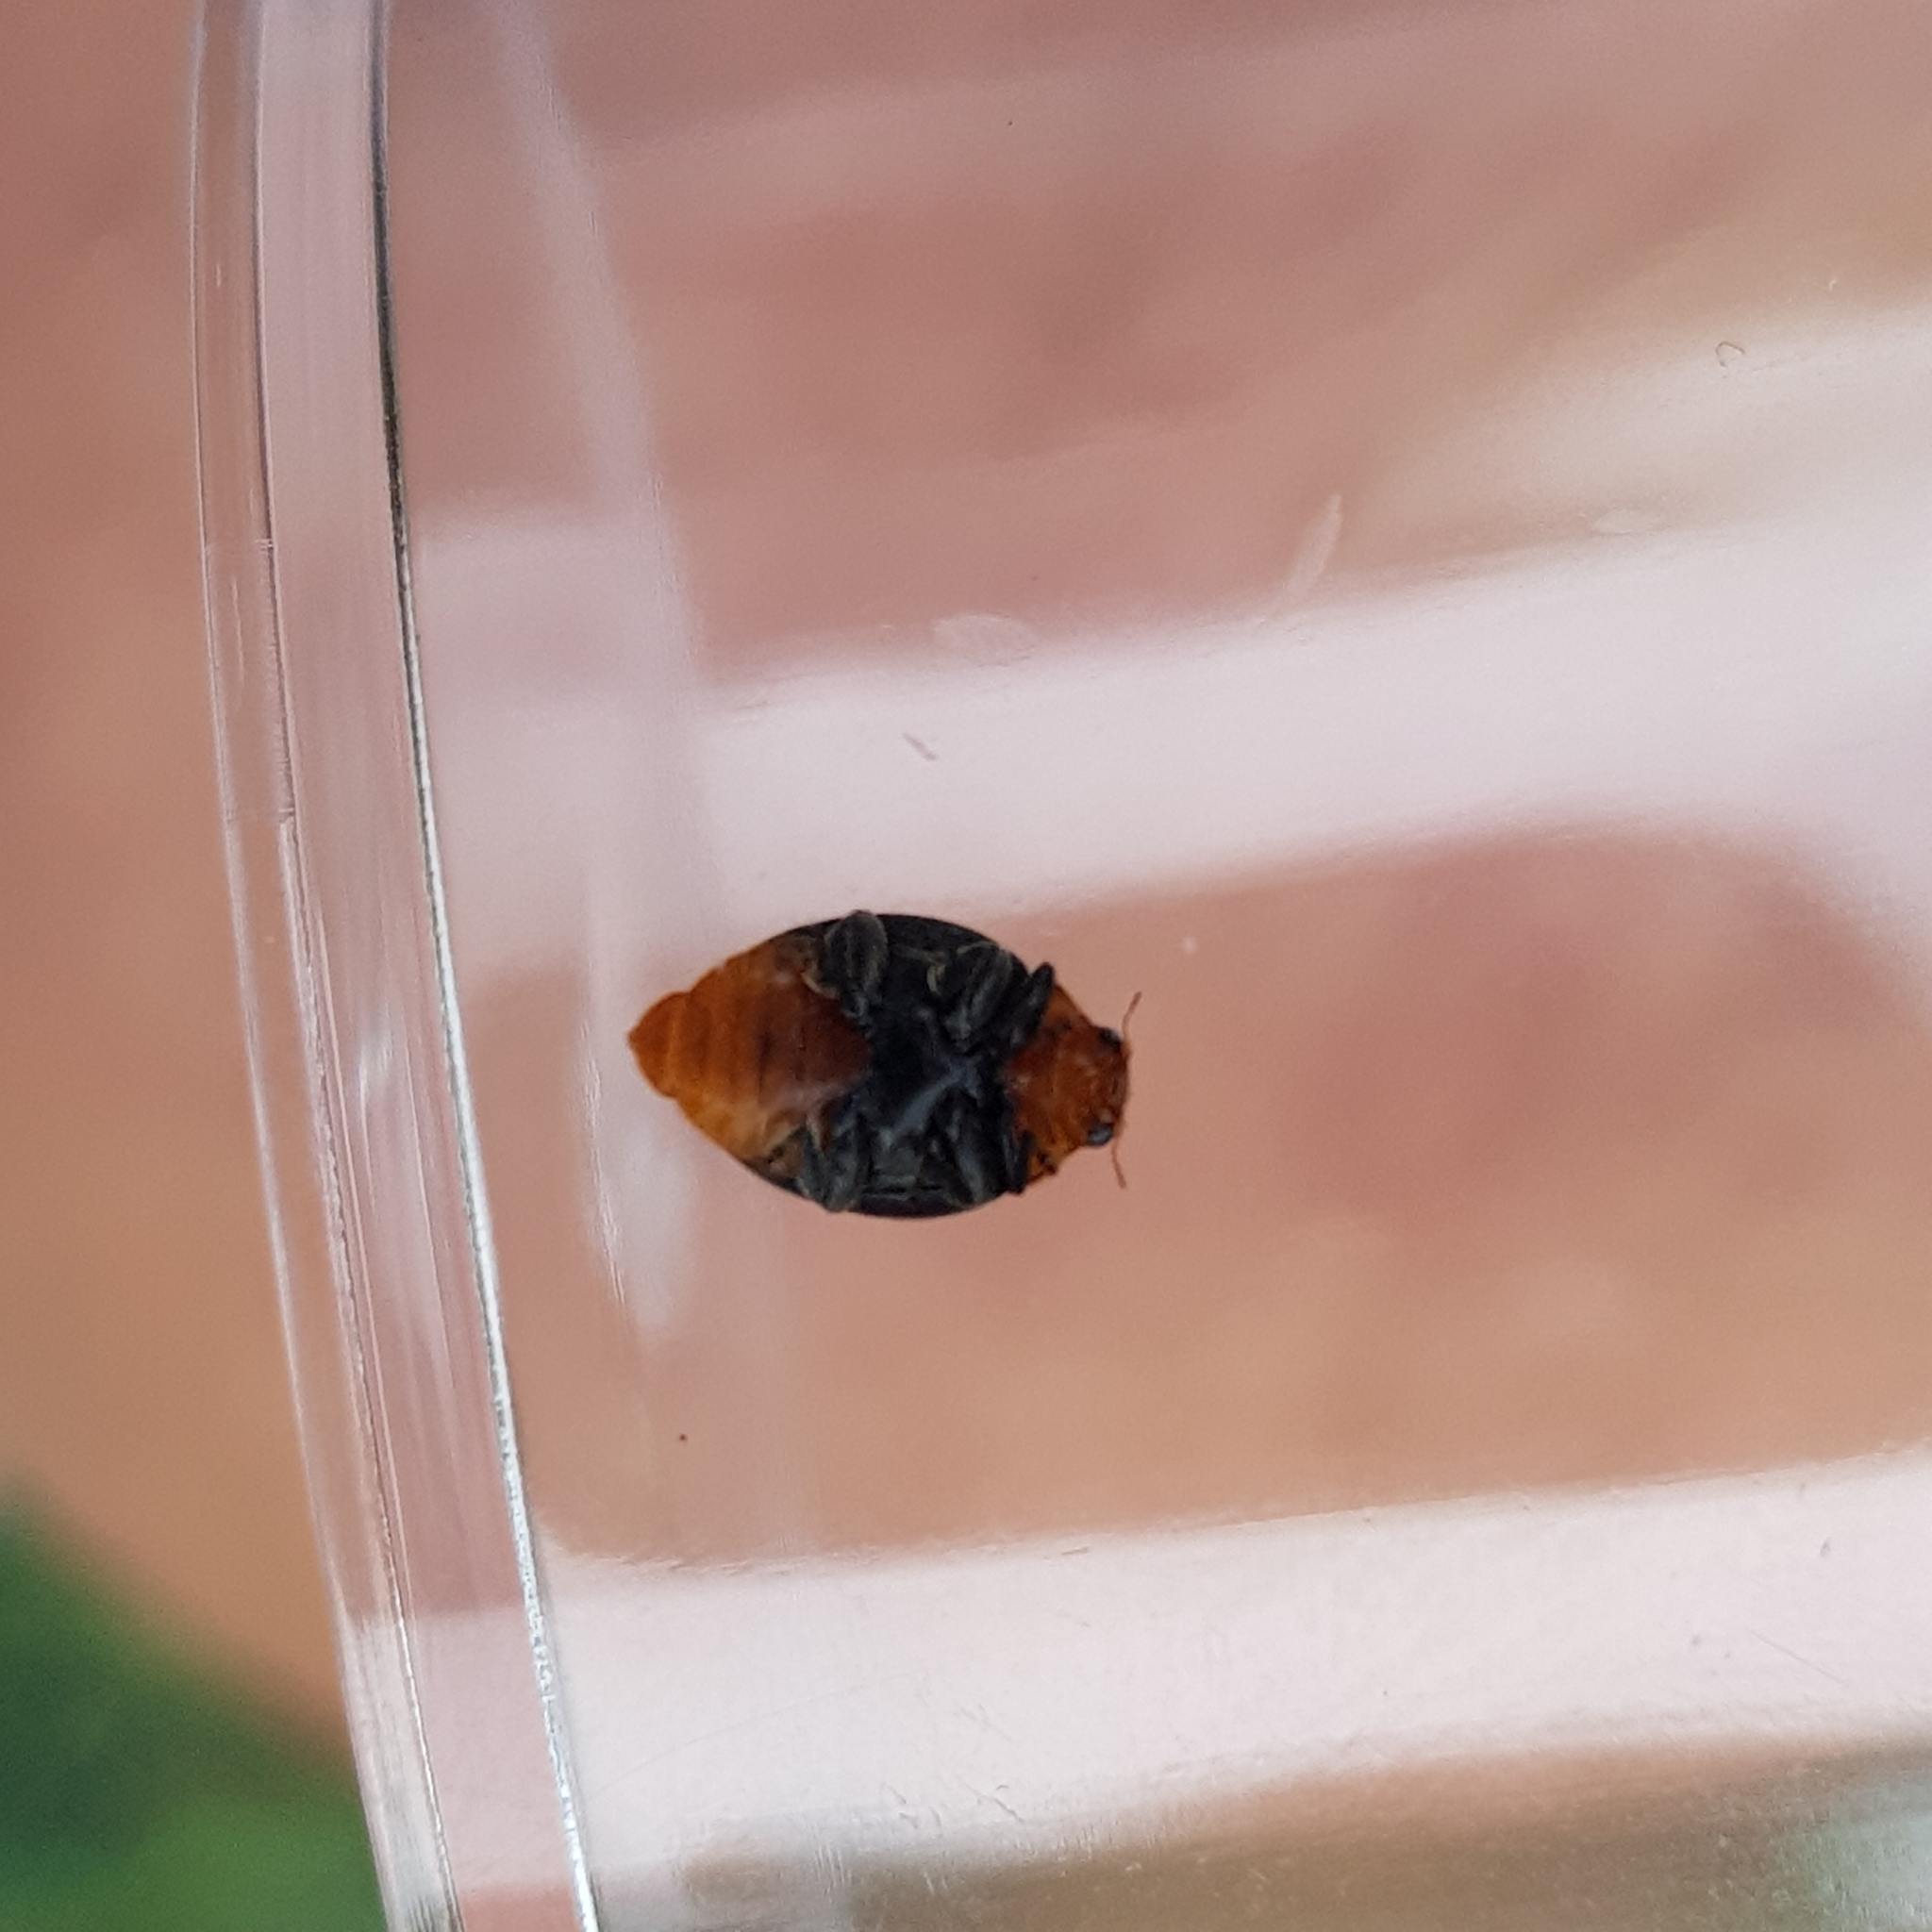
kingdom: Animalia
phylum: Arthropoda
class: Insecta
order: Coleoptera
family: Coccinellidae
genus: Cryptolaemus
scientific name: Cryptolaemus montrouzieri
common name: Mealybug destroyer
